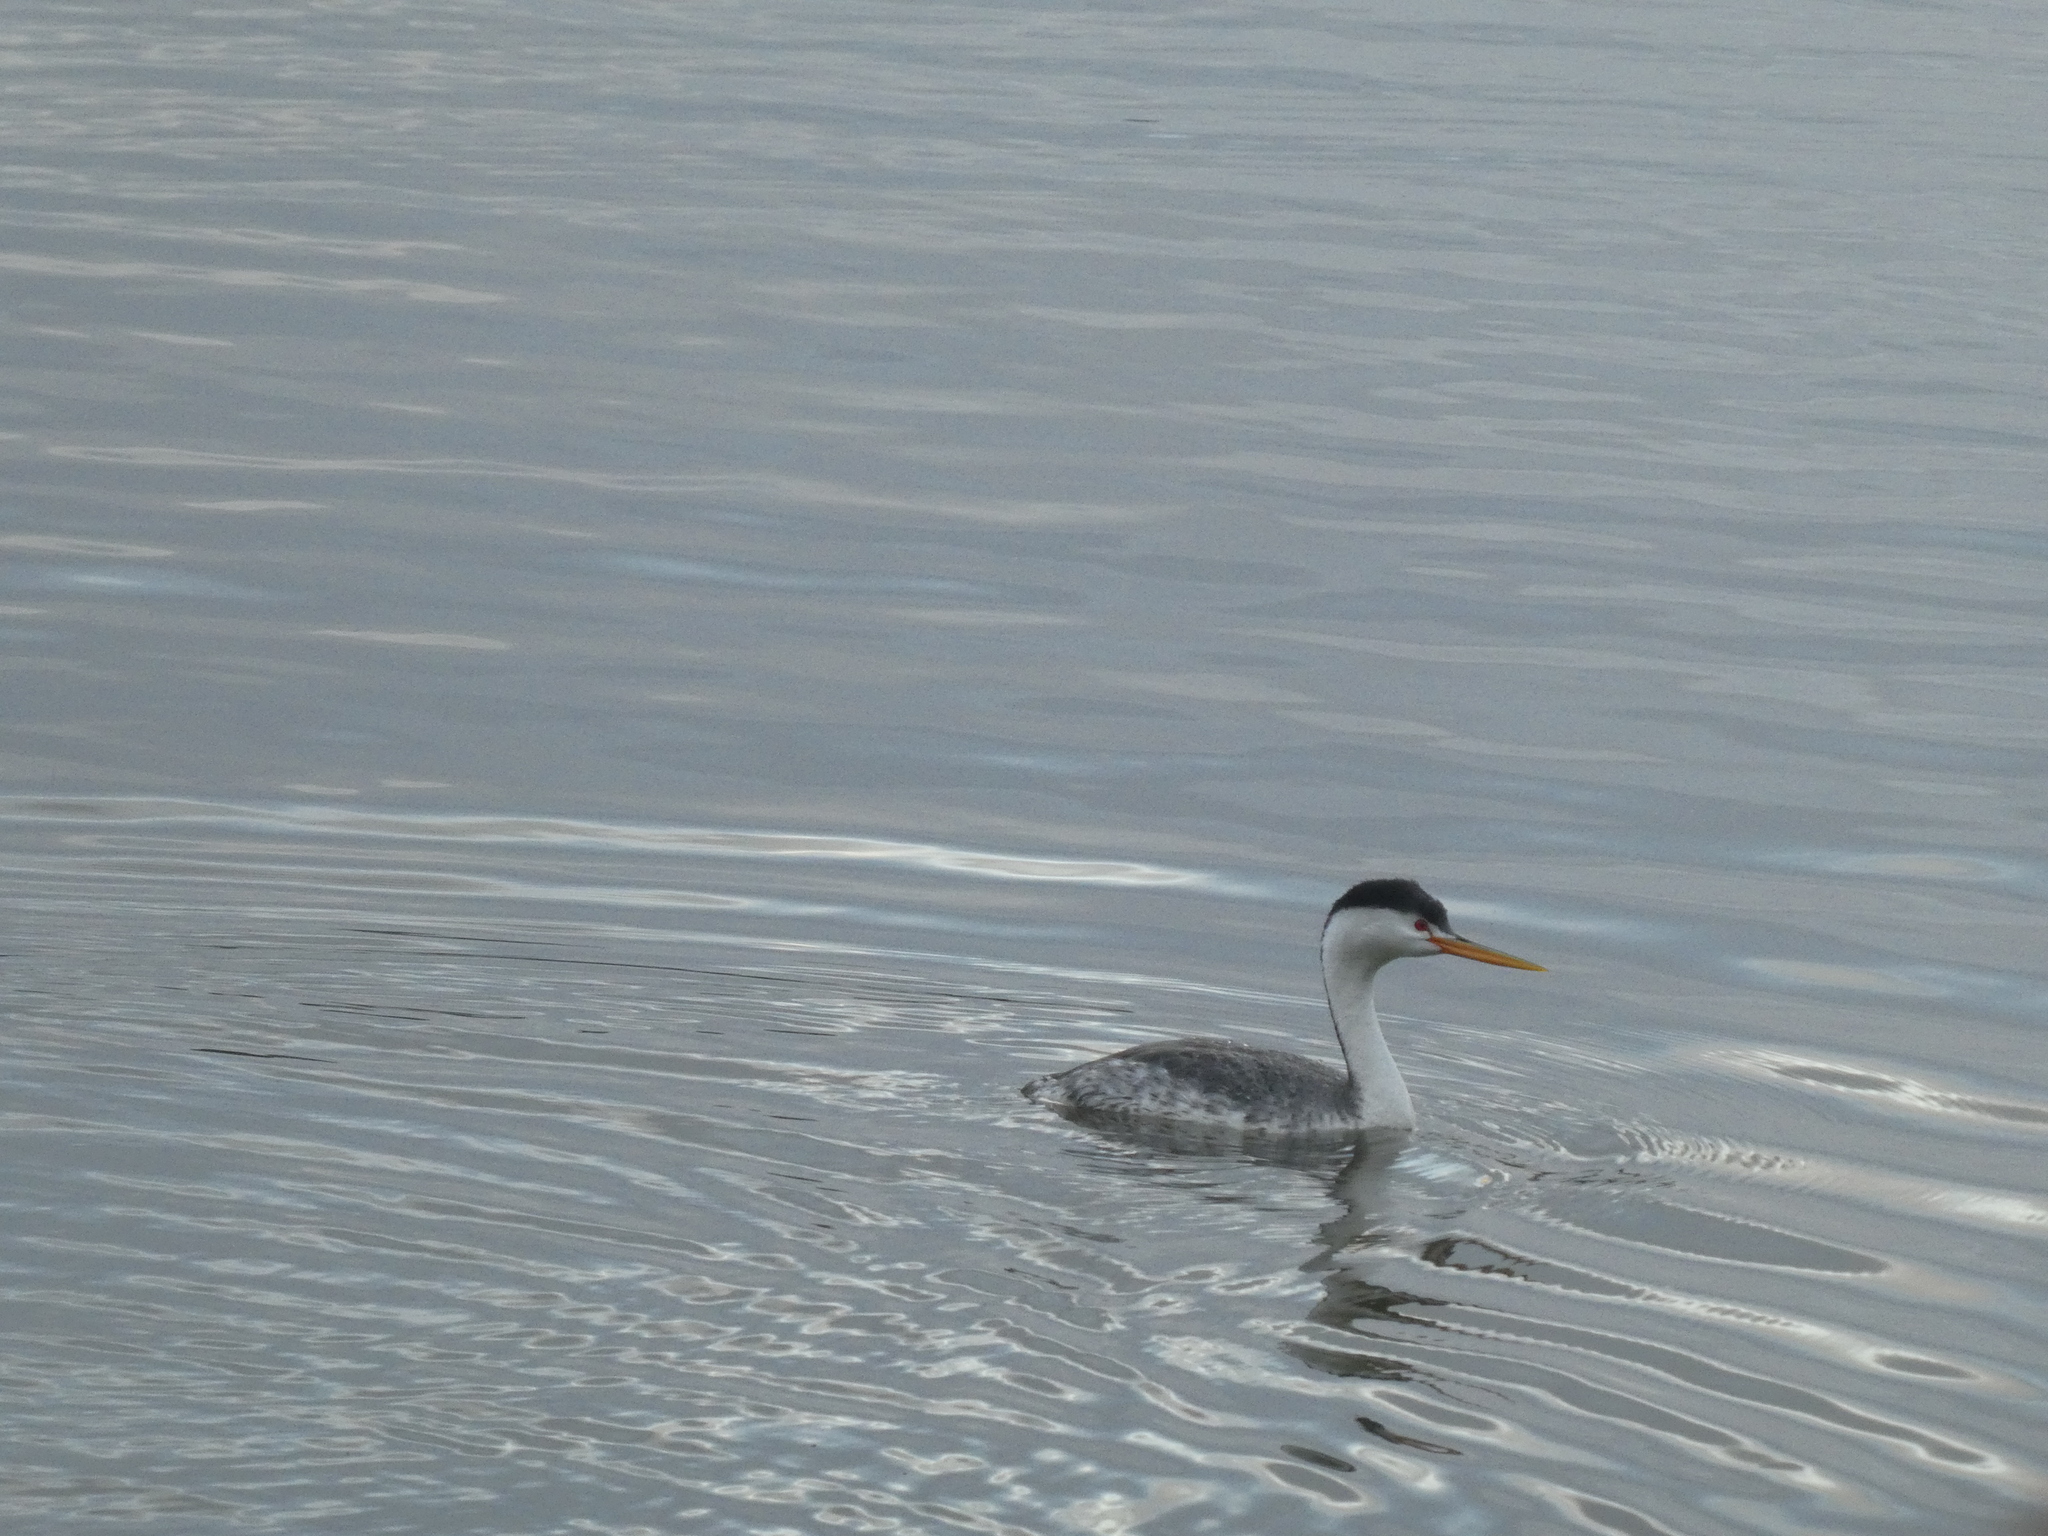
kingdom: Animalia
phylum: Chordata
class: Aves
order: Podicipediformes
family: Podicipedidae
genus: Aechmophorus
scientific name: Aechmophorus clarkii
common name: Clark's grebe
